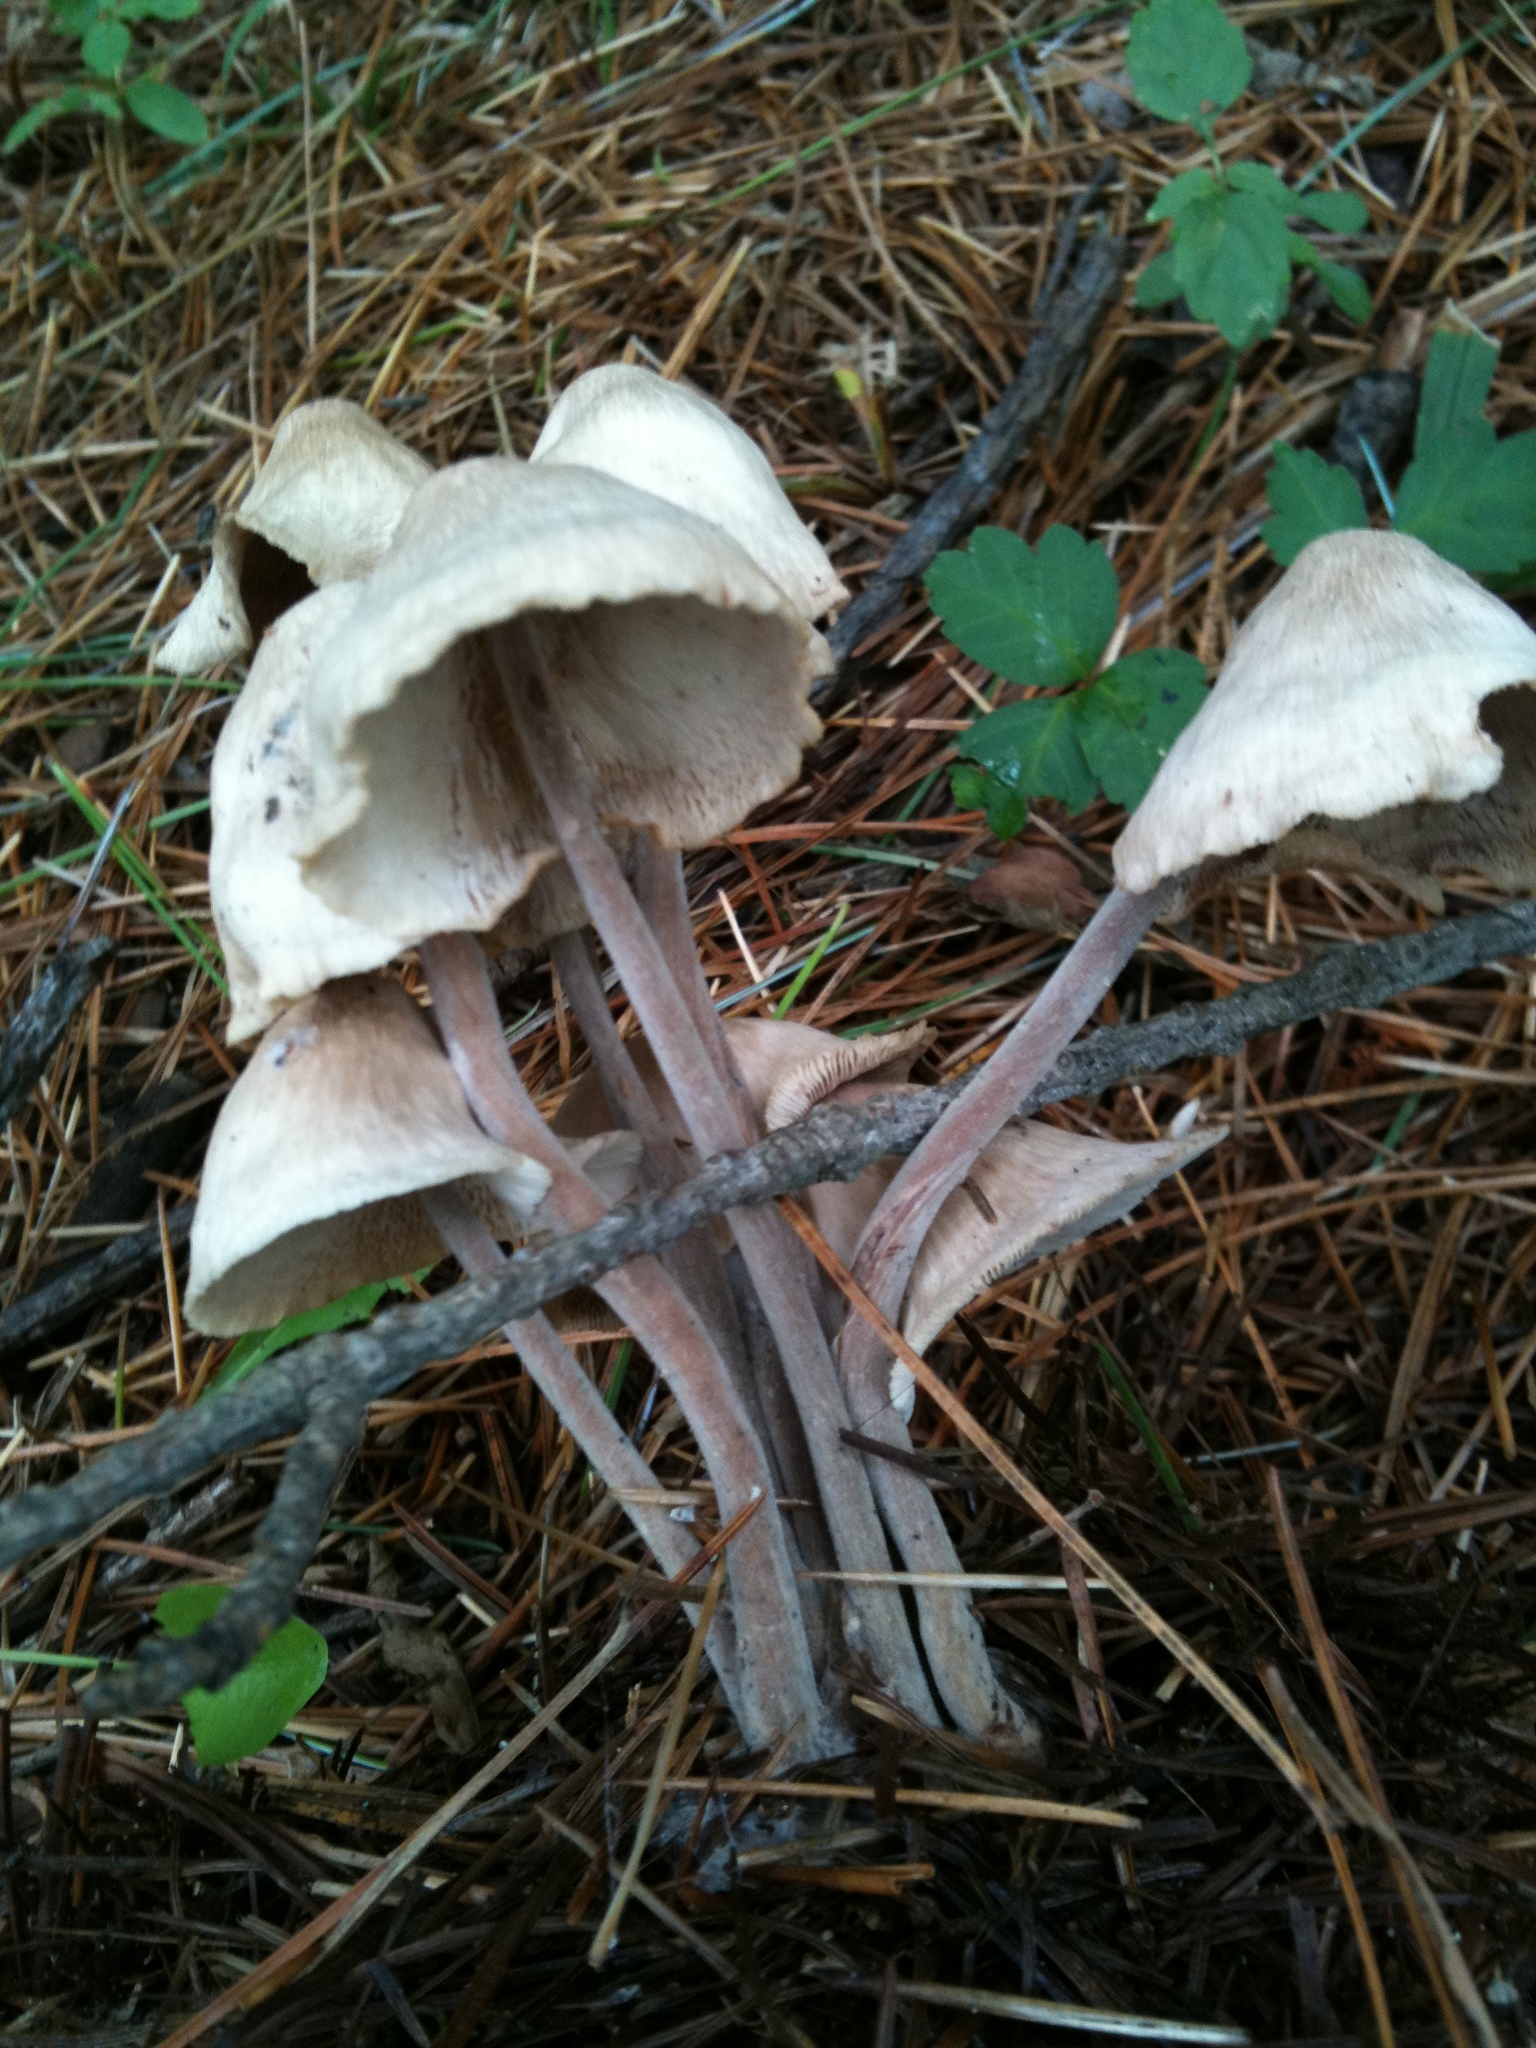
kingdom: Fungi
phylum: Basidiomycota
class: Agaricomycetes
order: Agaricales
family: Omphalotaceae
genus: Collybiopsis
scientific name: Collybiopsis confluens
